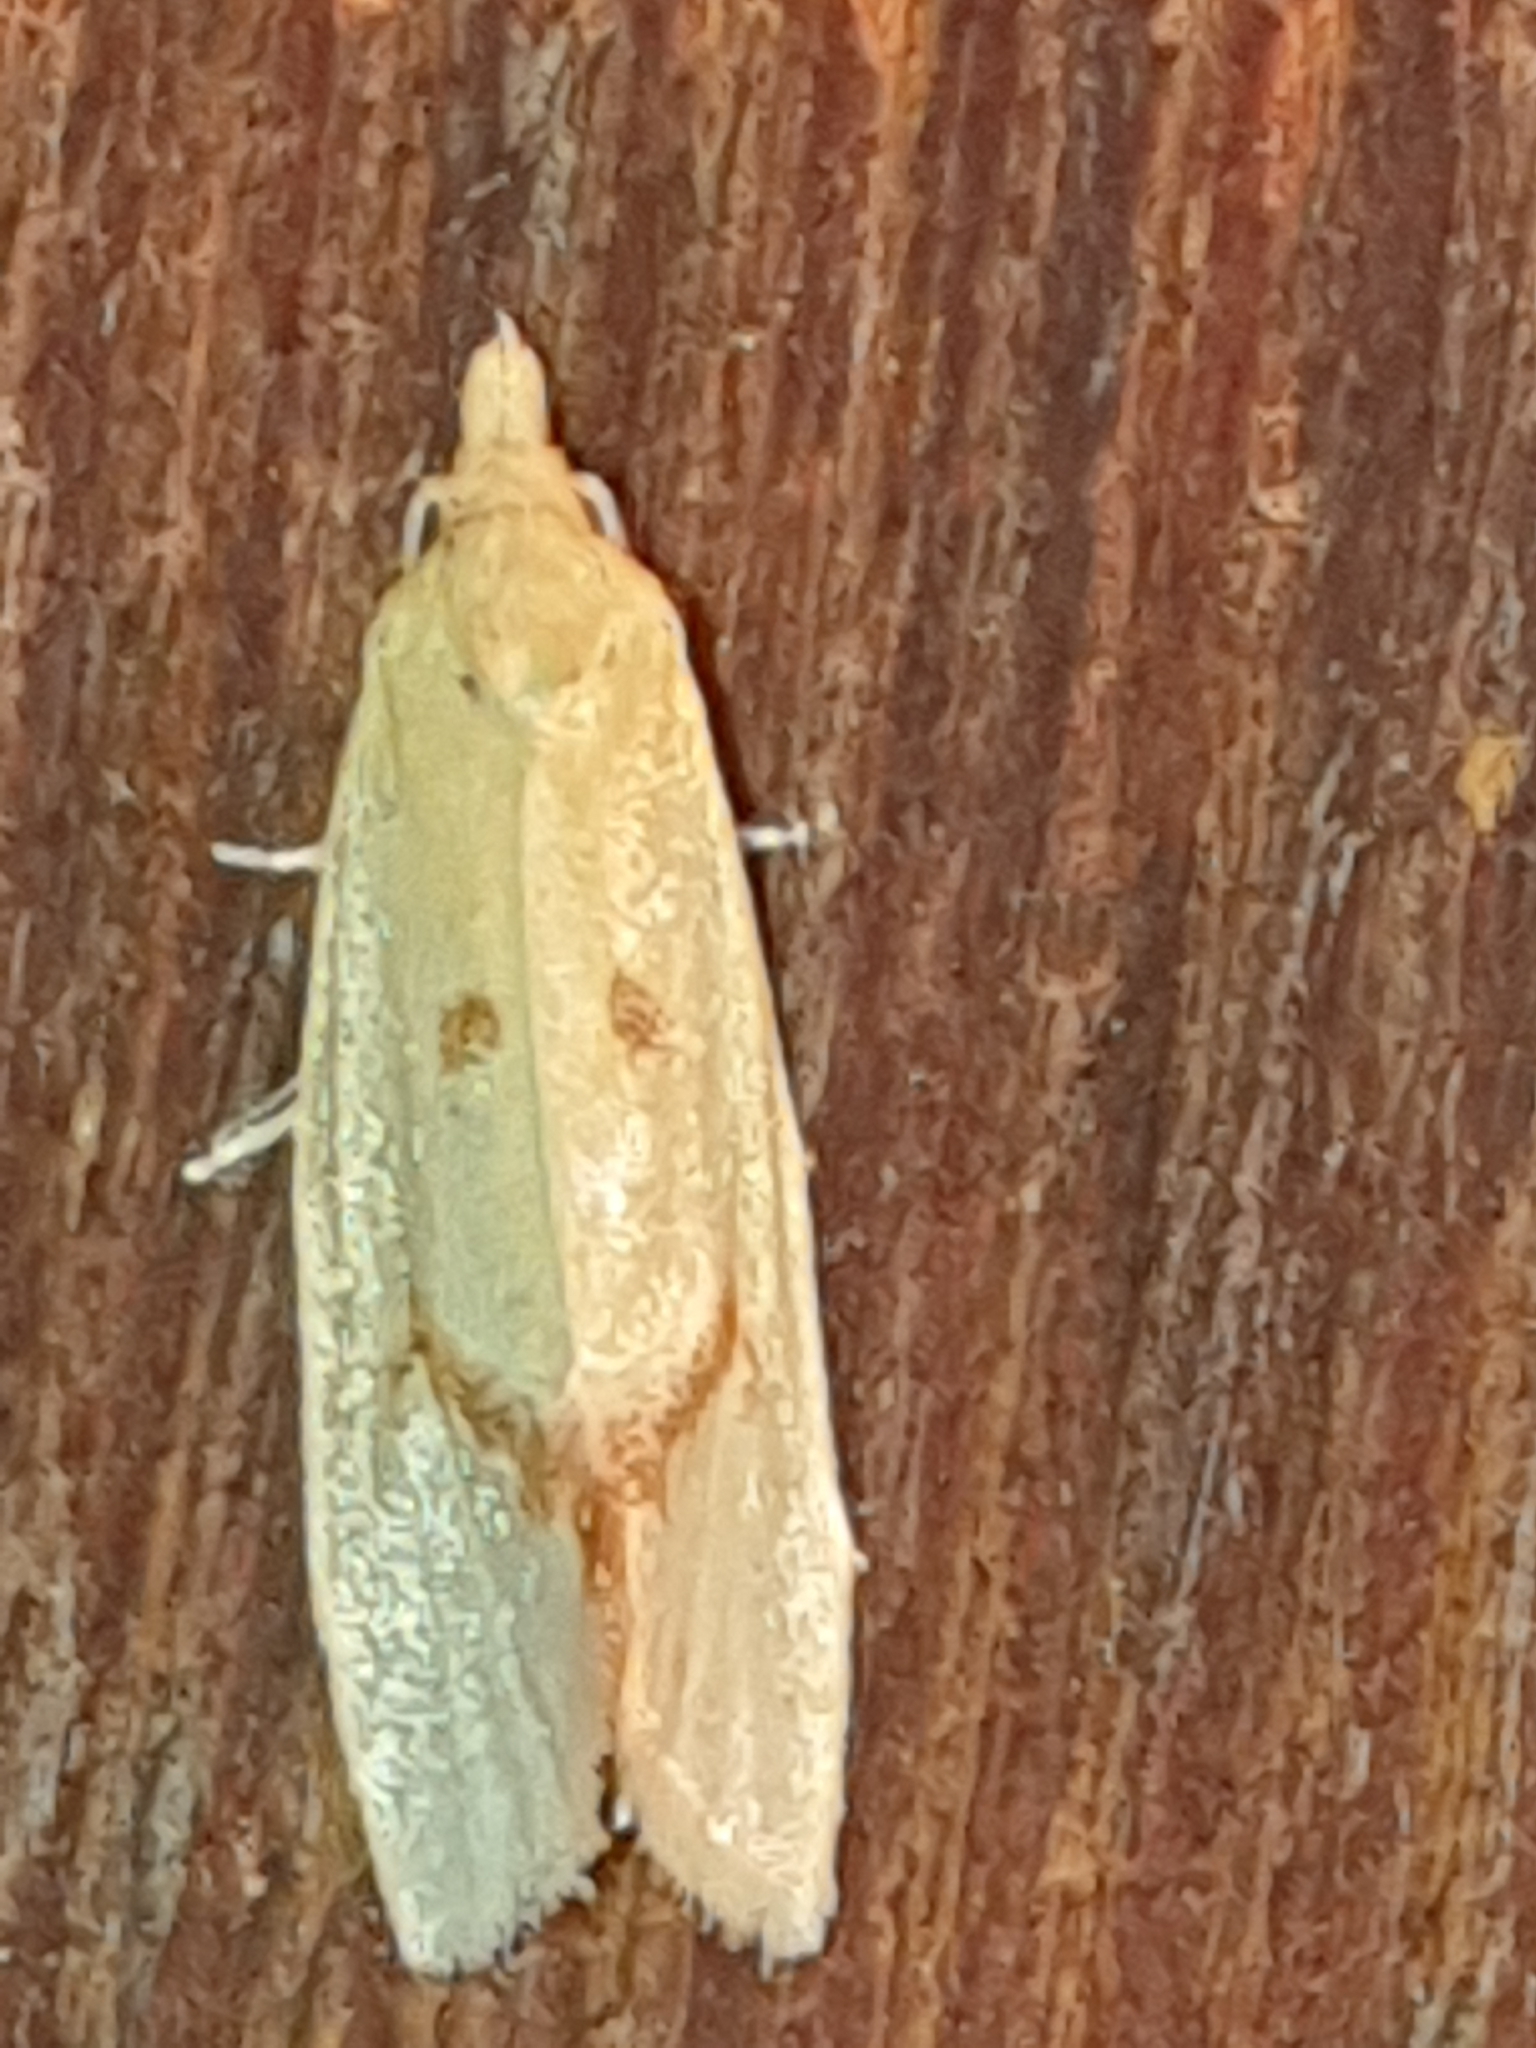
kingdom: Animalia
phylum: Arthropoda
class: Insecta
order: Lepidoptera
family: Tortricidae
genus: Agapeta
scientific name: Agapeta hamana
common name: Common yellow conch
